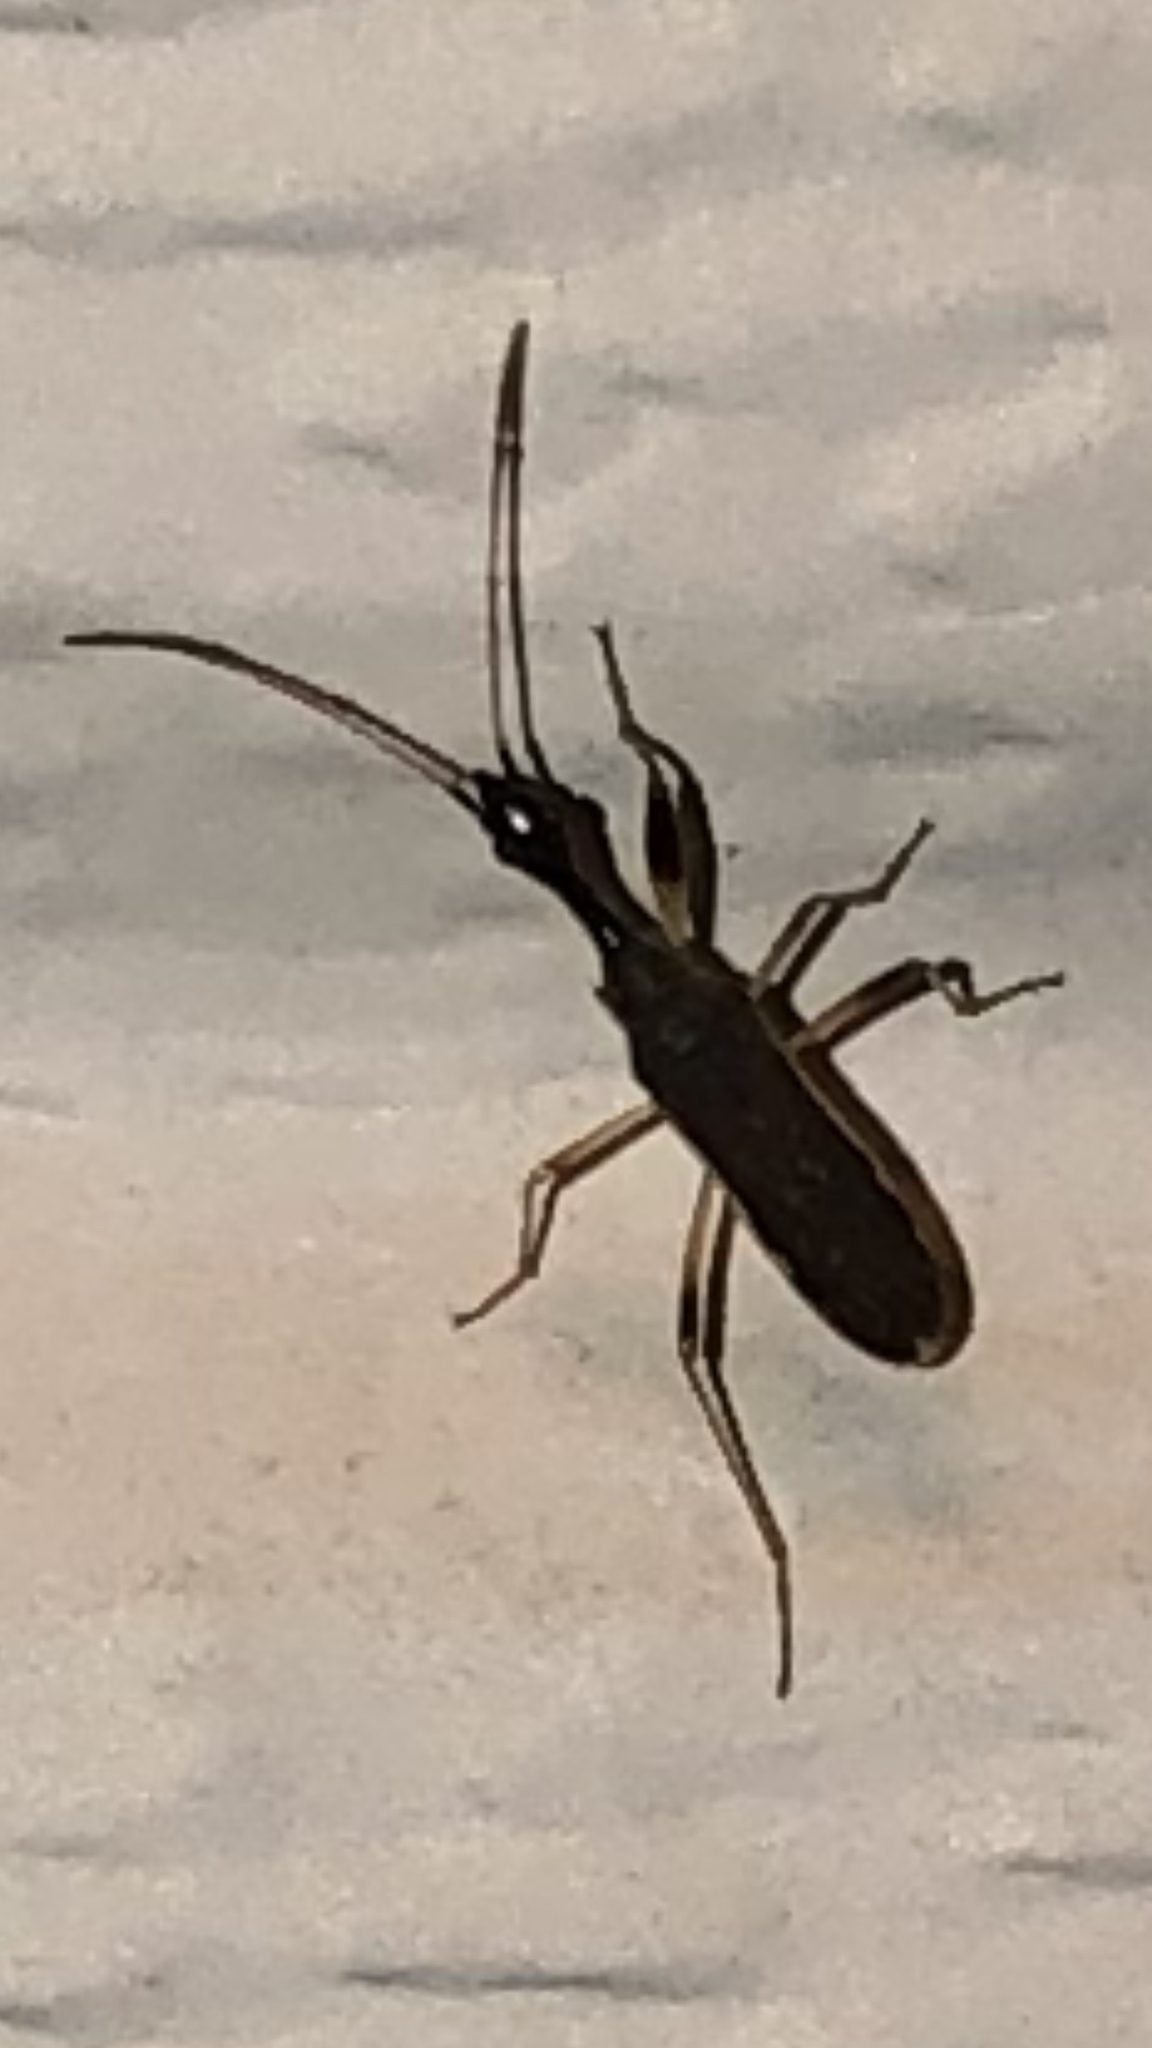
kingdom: Animalia
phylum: Arthropoda
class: Insecta
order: Hemiptera
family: Rhyparochromidae
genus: Myodocha
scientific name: Myodocha serripes
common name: Long-necked seed bug
